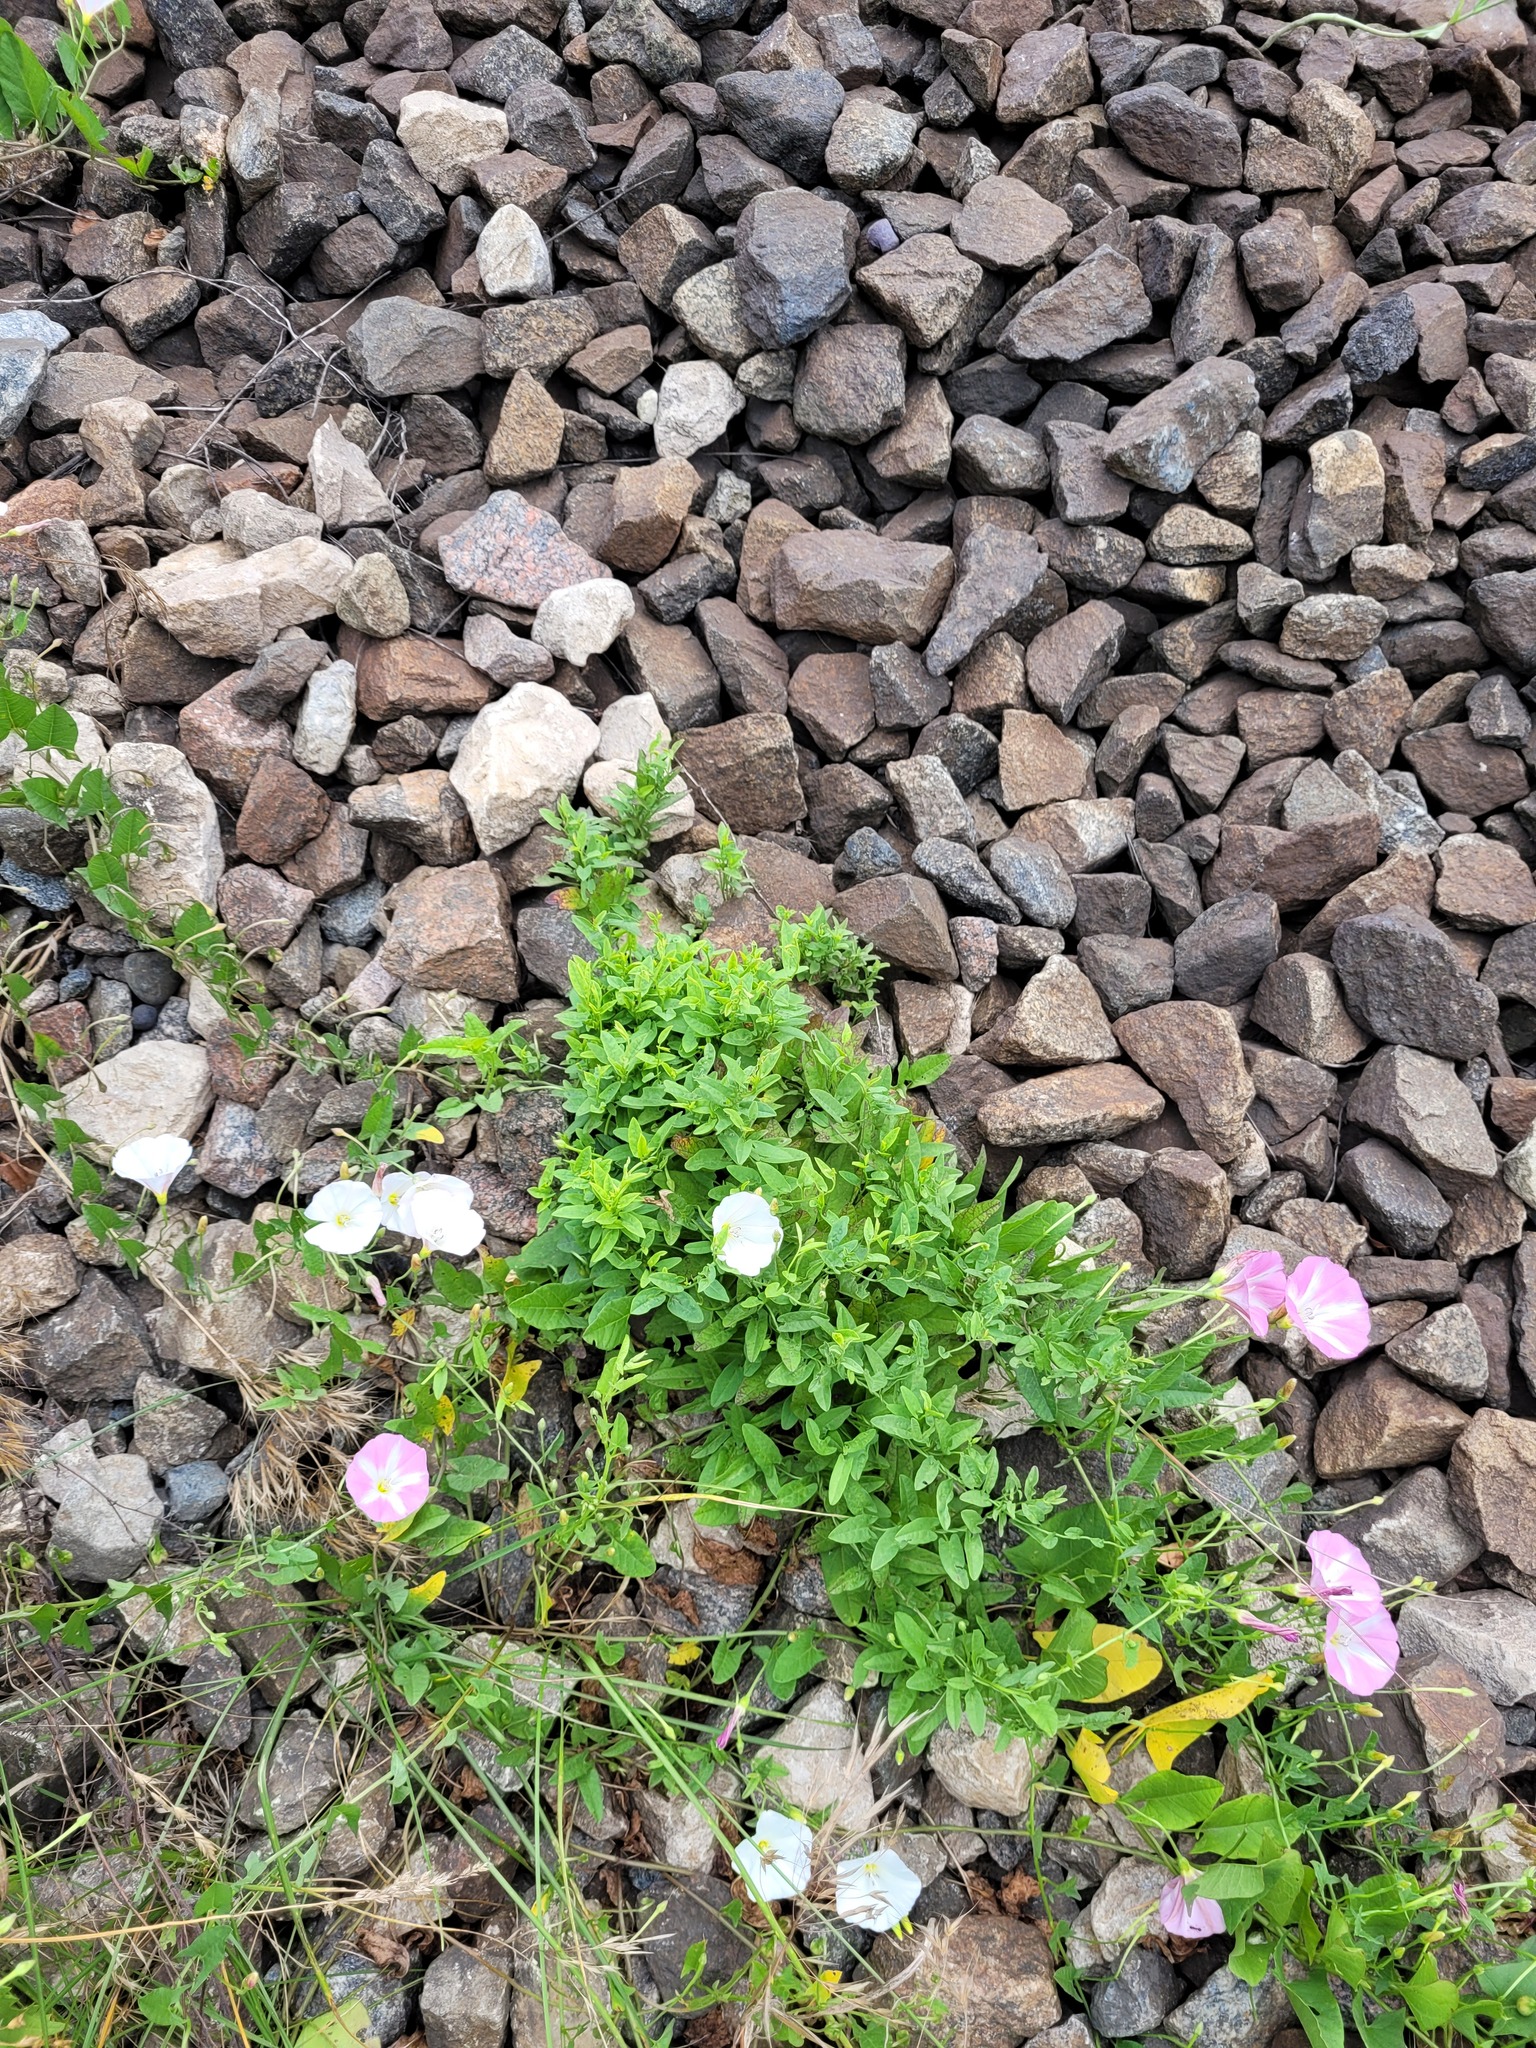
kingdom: Plantae
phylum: Tracheophyta
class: Magnoliopsida
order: Solanales
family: Convolvulaceae
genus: Convolvulus
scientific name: Convolvulus arvensis
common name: Field bindweed
